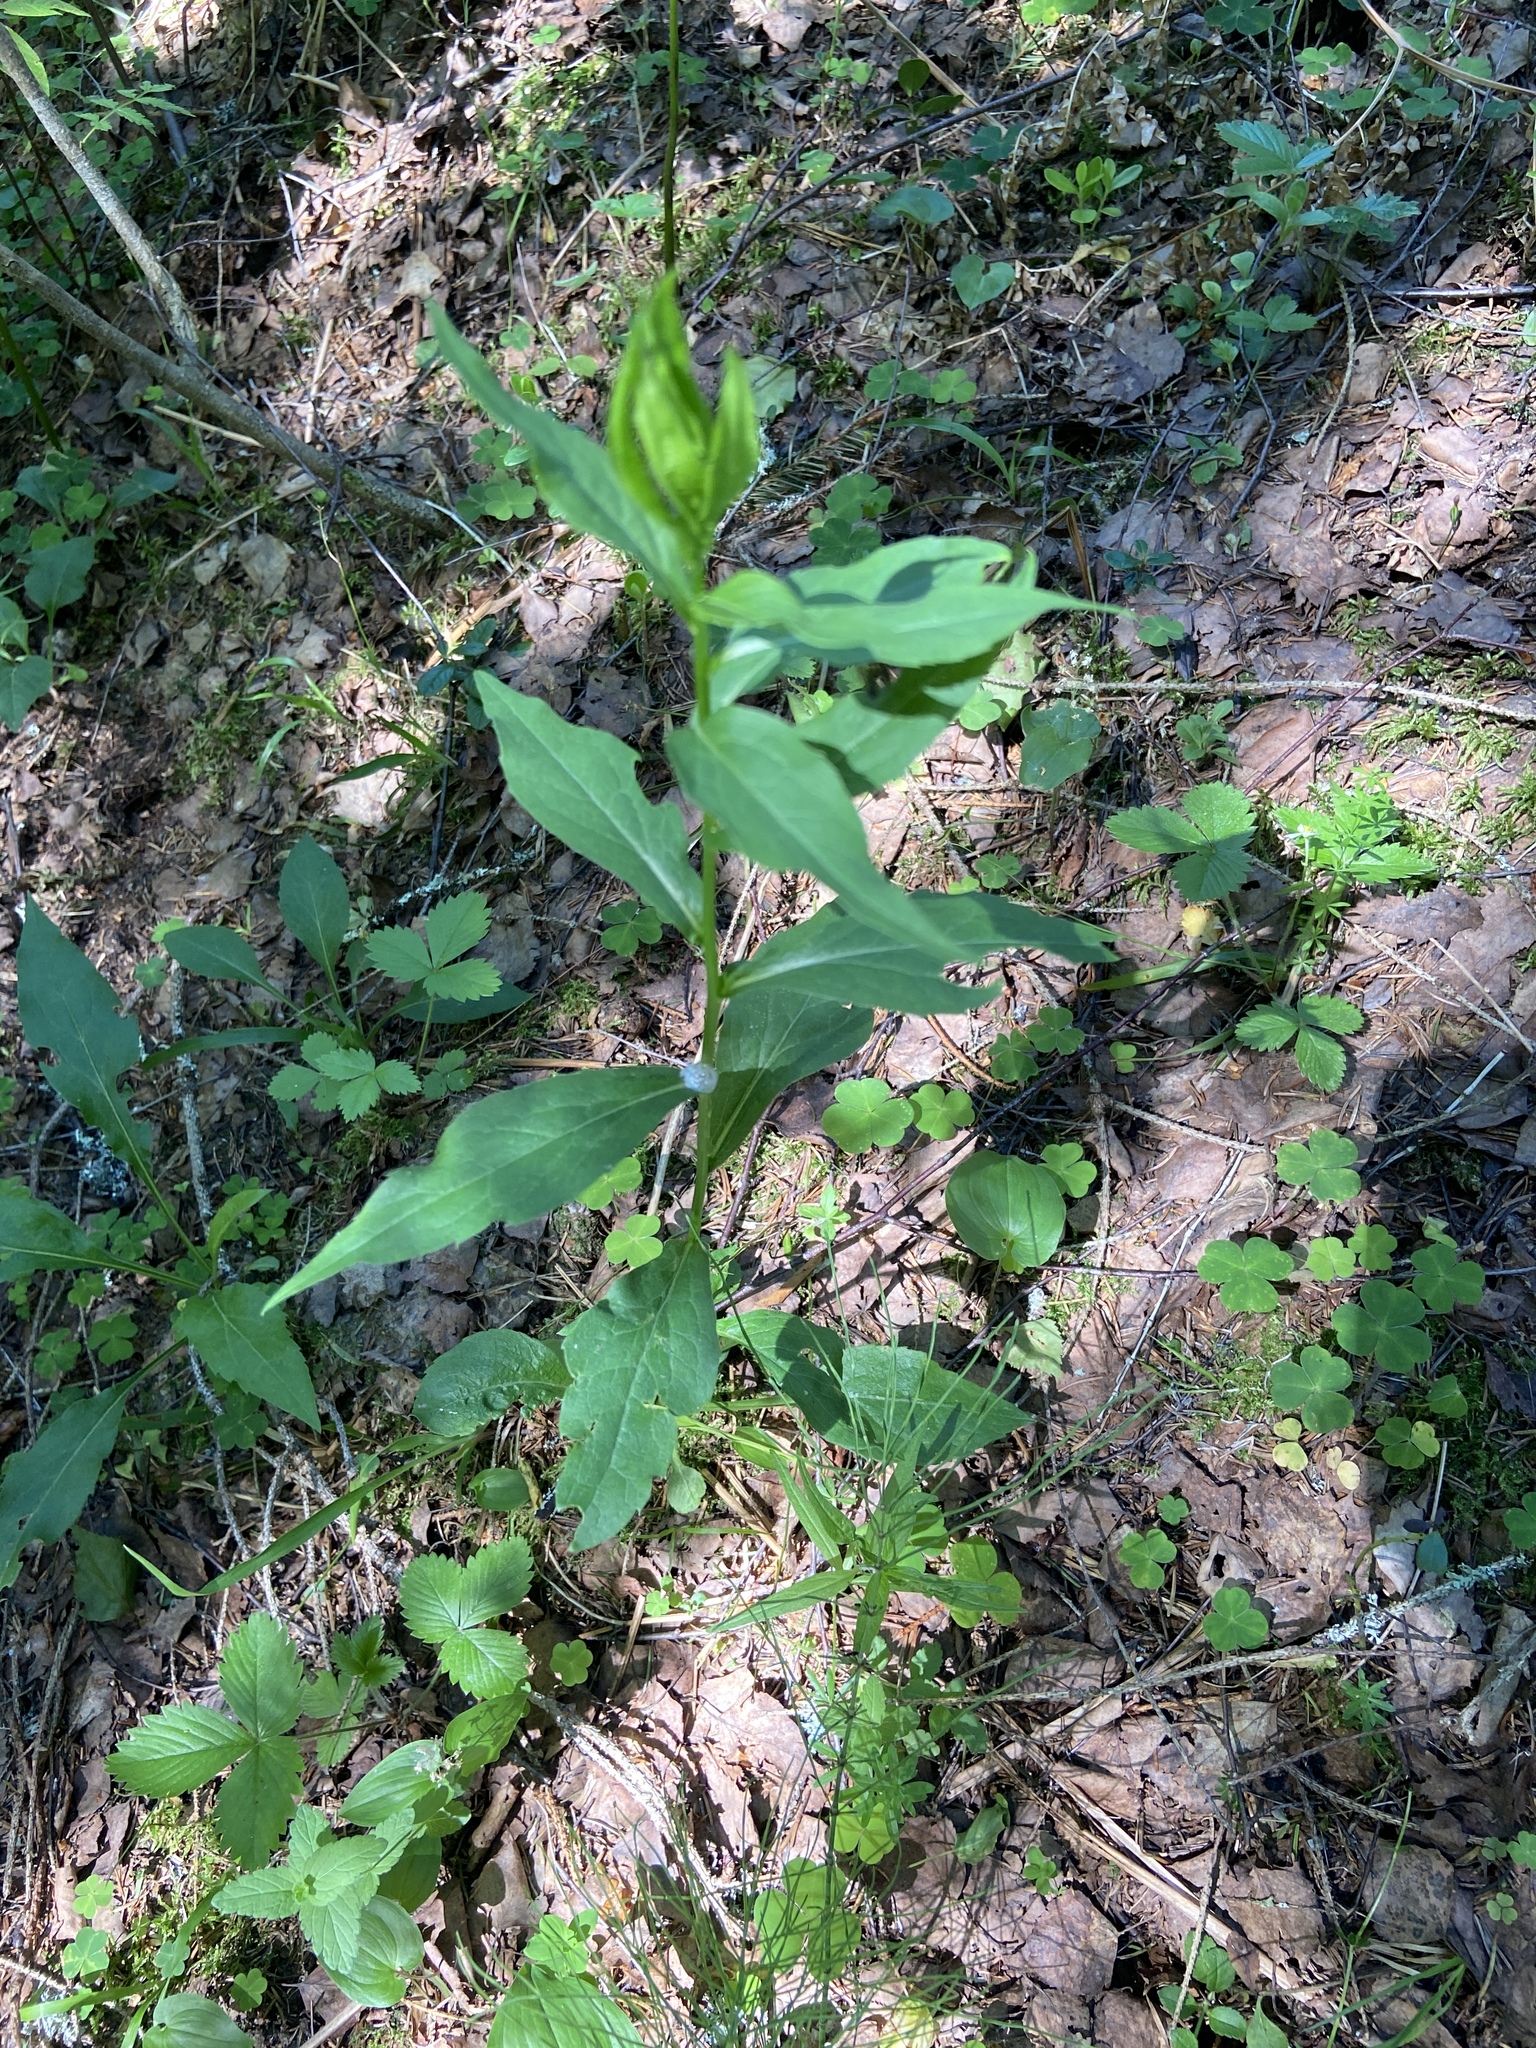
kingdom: Plantae
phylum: Tracheophyta
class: Magnoliopsida
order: Asterales
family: Asteraceae
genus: Solidago
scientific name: Solidago virgaurea
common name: Goldenrod
